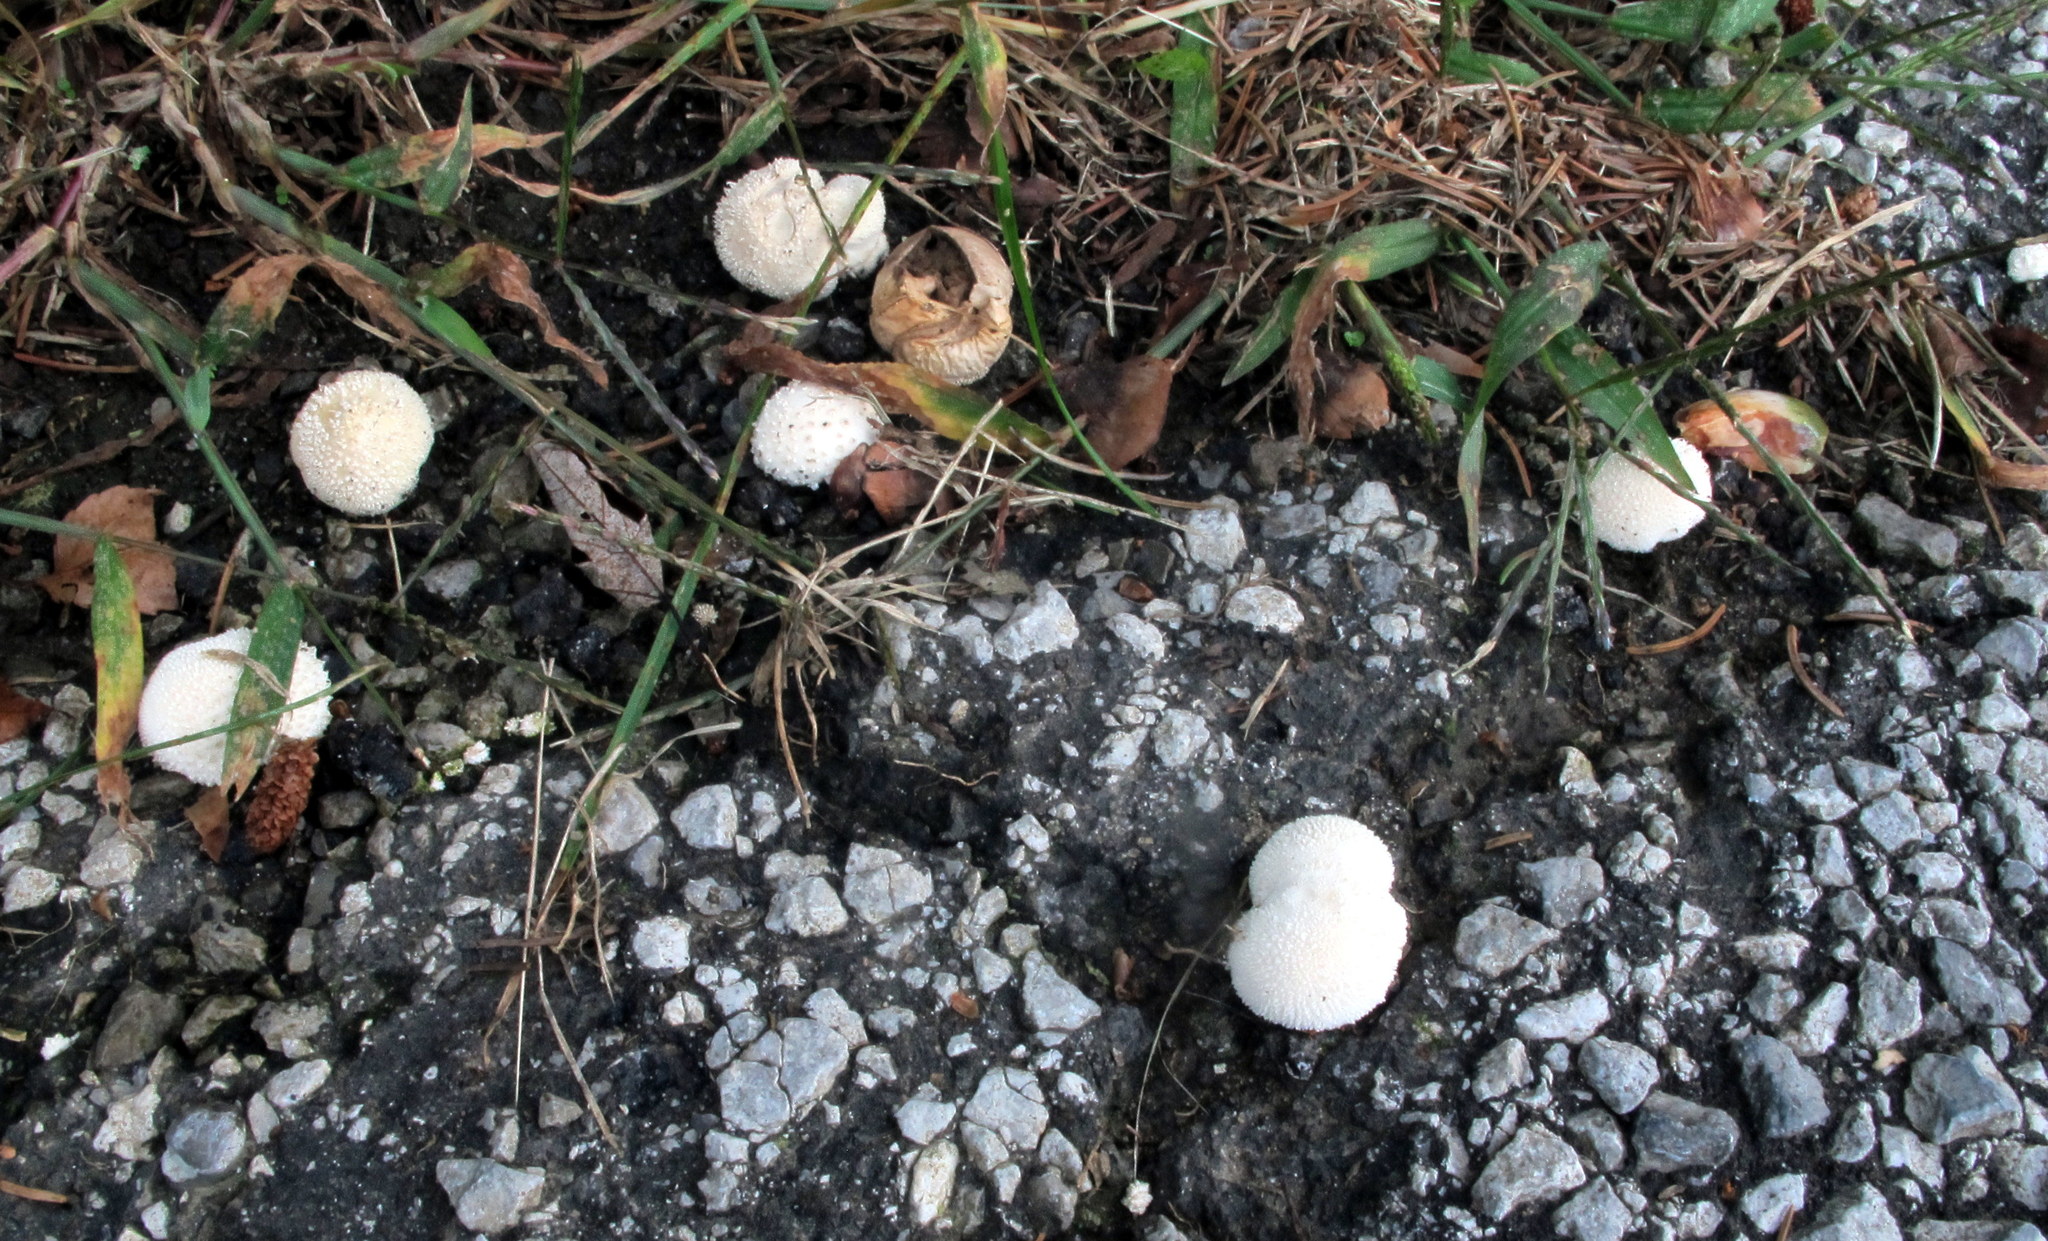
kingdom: Fungi
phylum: Basidiomycota
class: Agaricomycetes
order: Agaricales
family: Agaricaceae
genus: Lycoperdon
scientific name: Lycoperdon marginatum
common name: Peeling puffball
